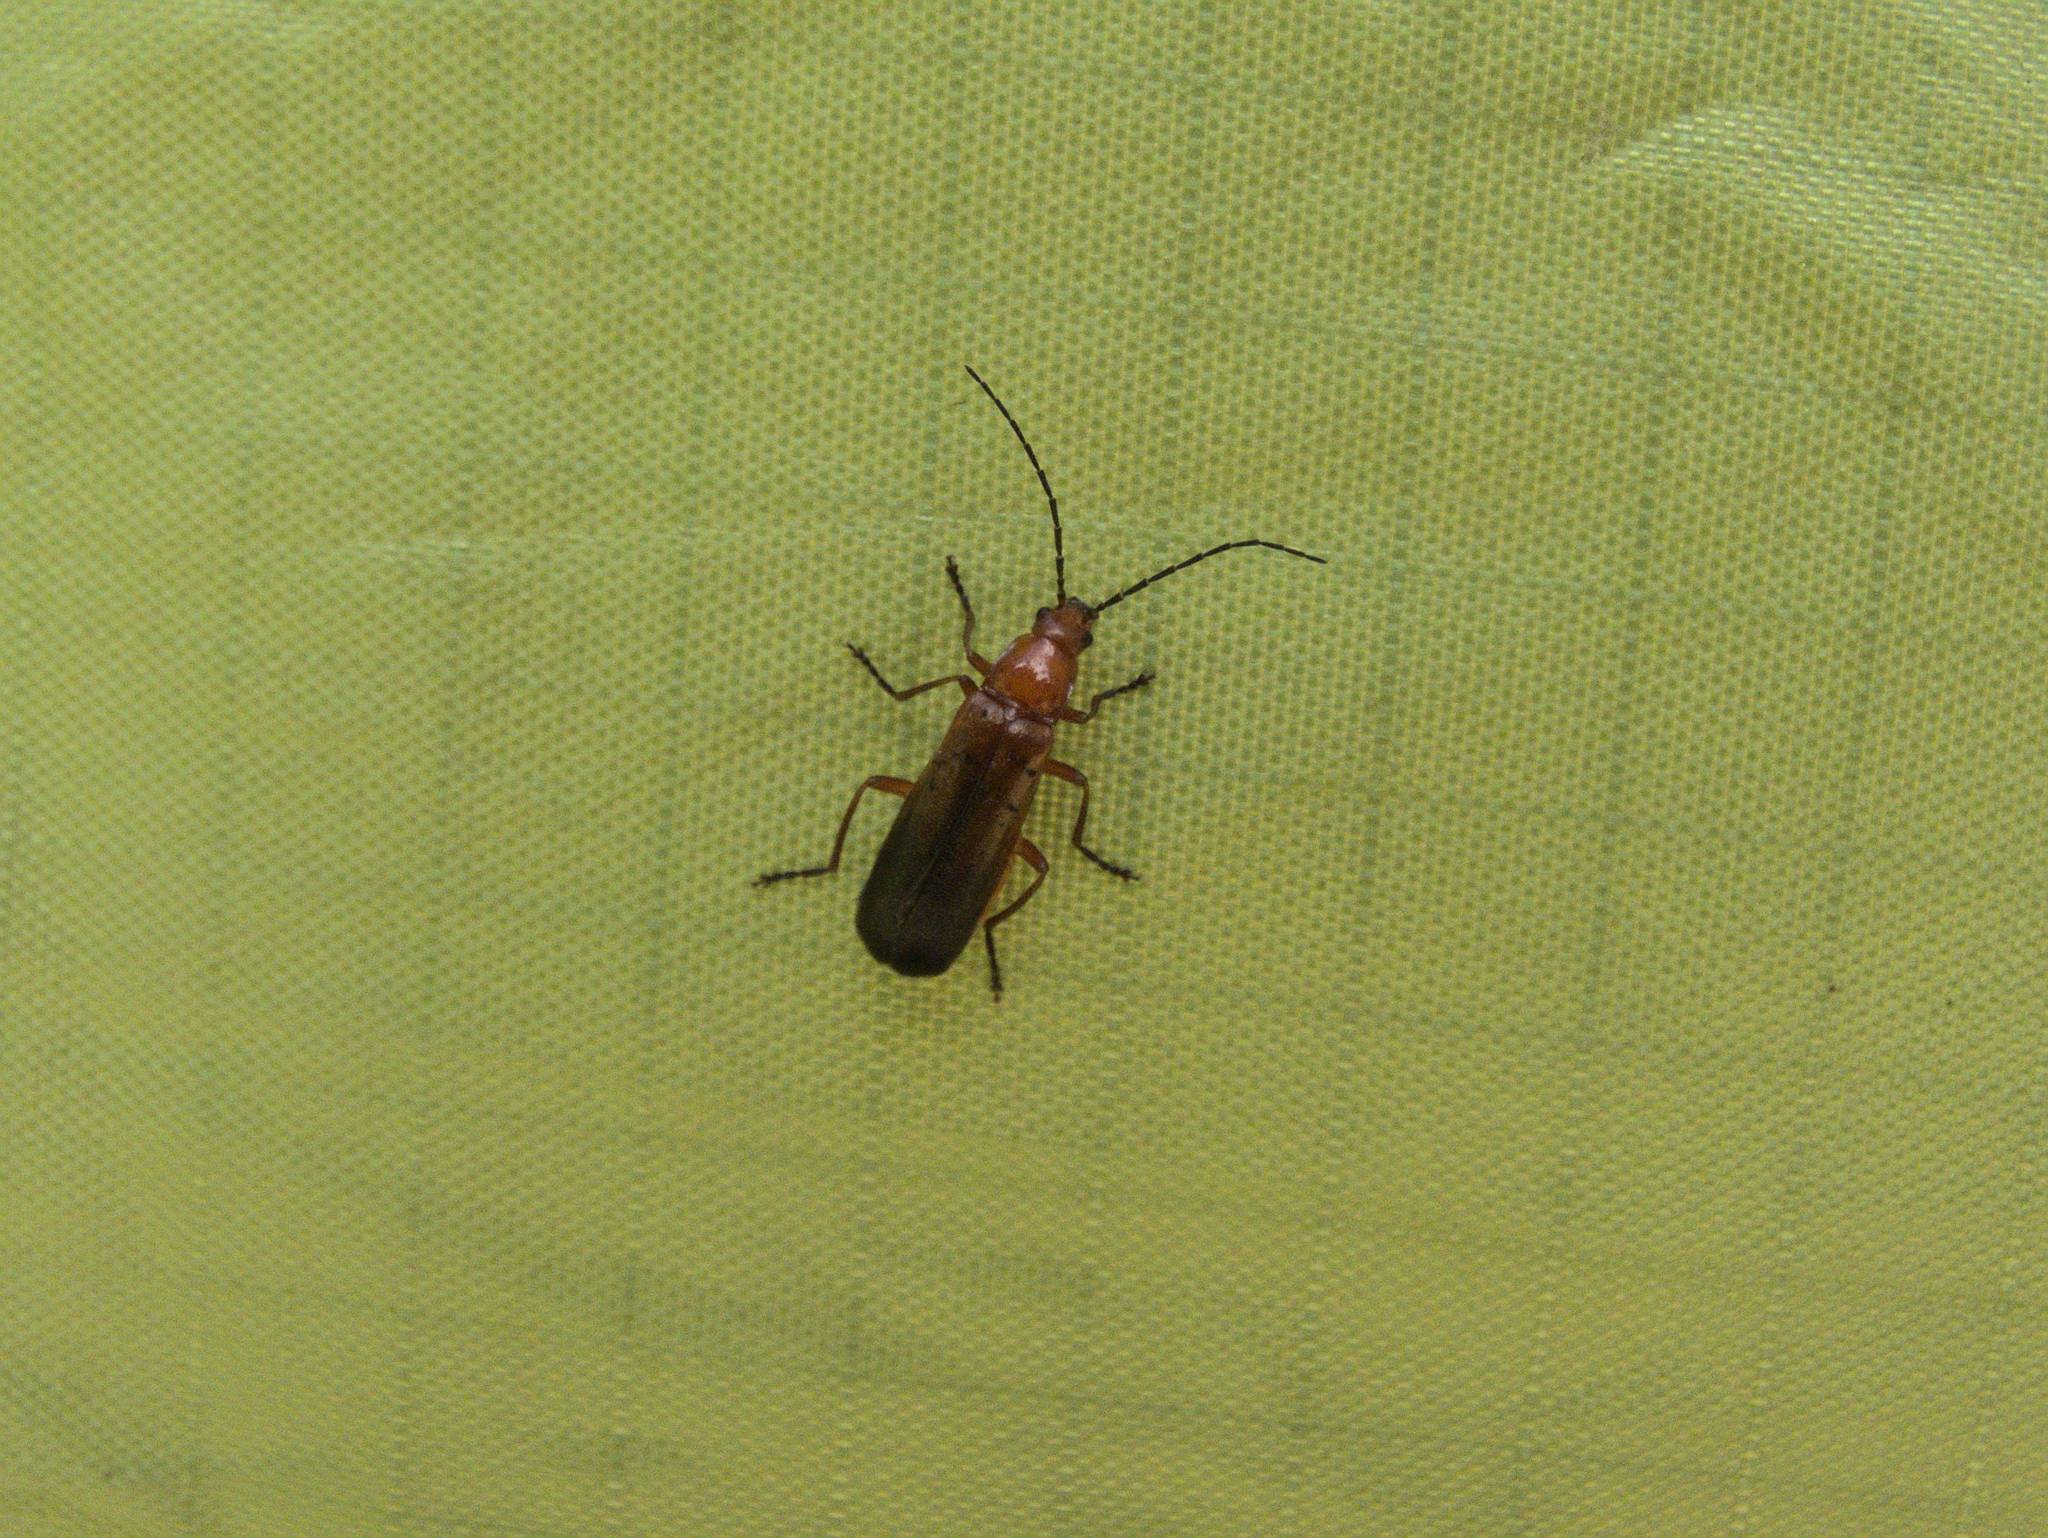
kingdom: Animalia
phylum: Arthropoda
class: Insecta
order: Coleoptera
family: Cantharidae
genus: Rhagonycha
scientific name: Rhagonycha fulva
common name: Common red soldier beetle
